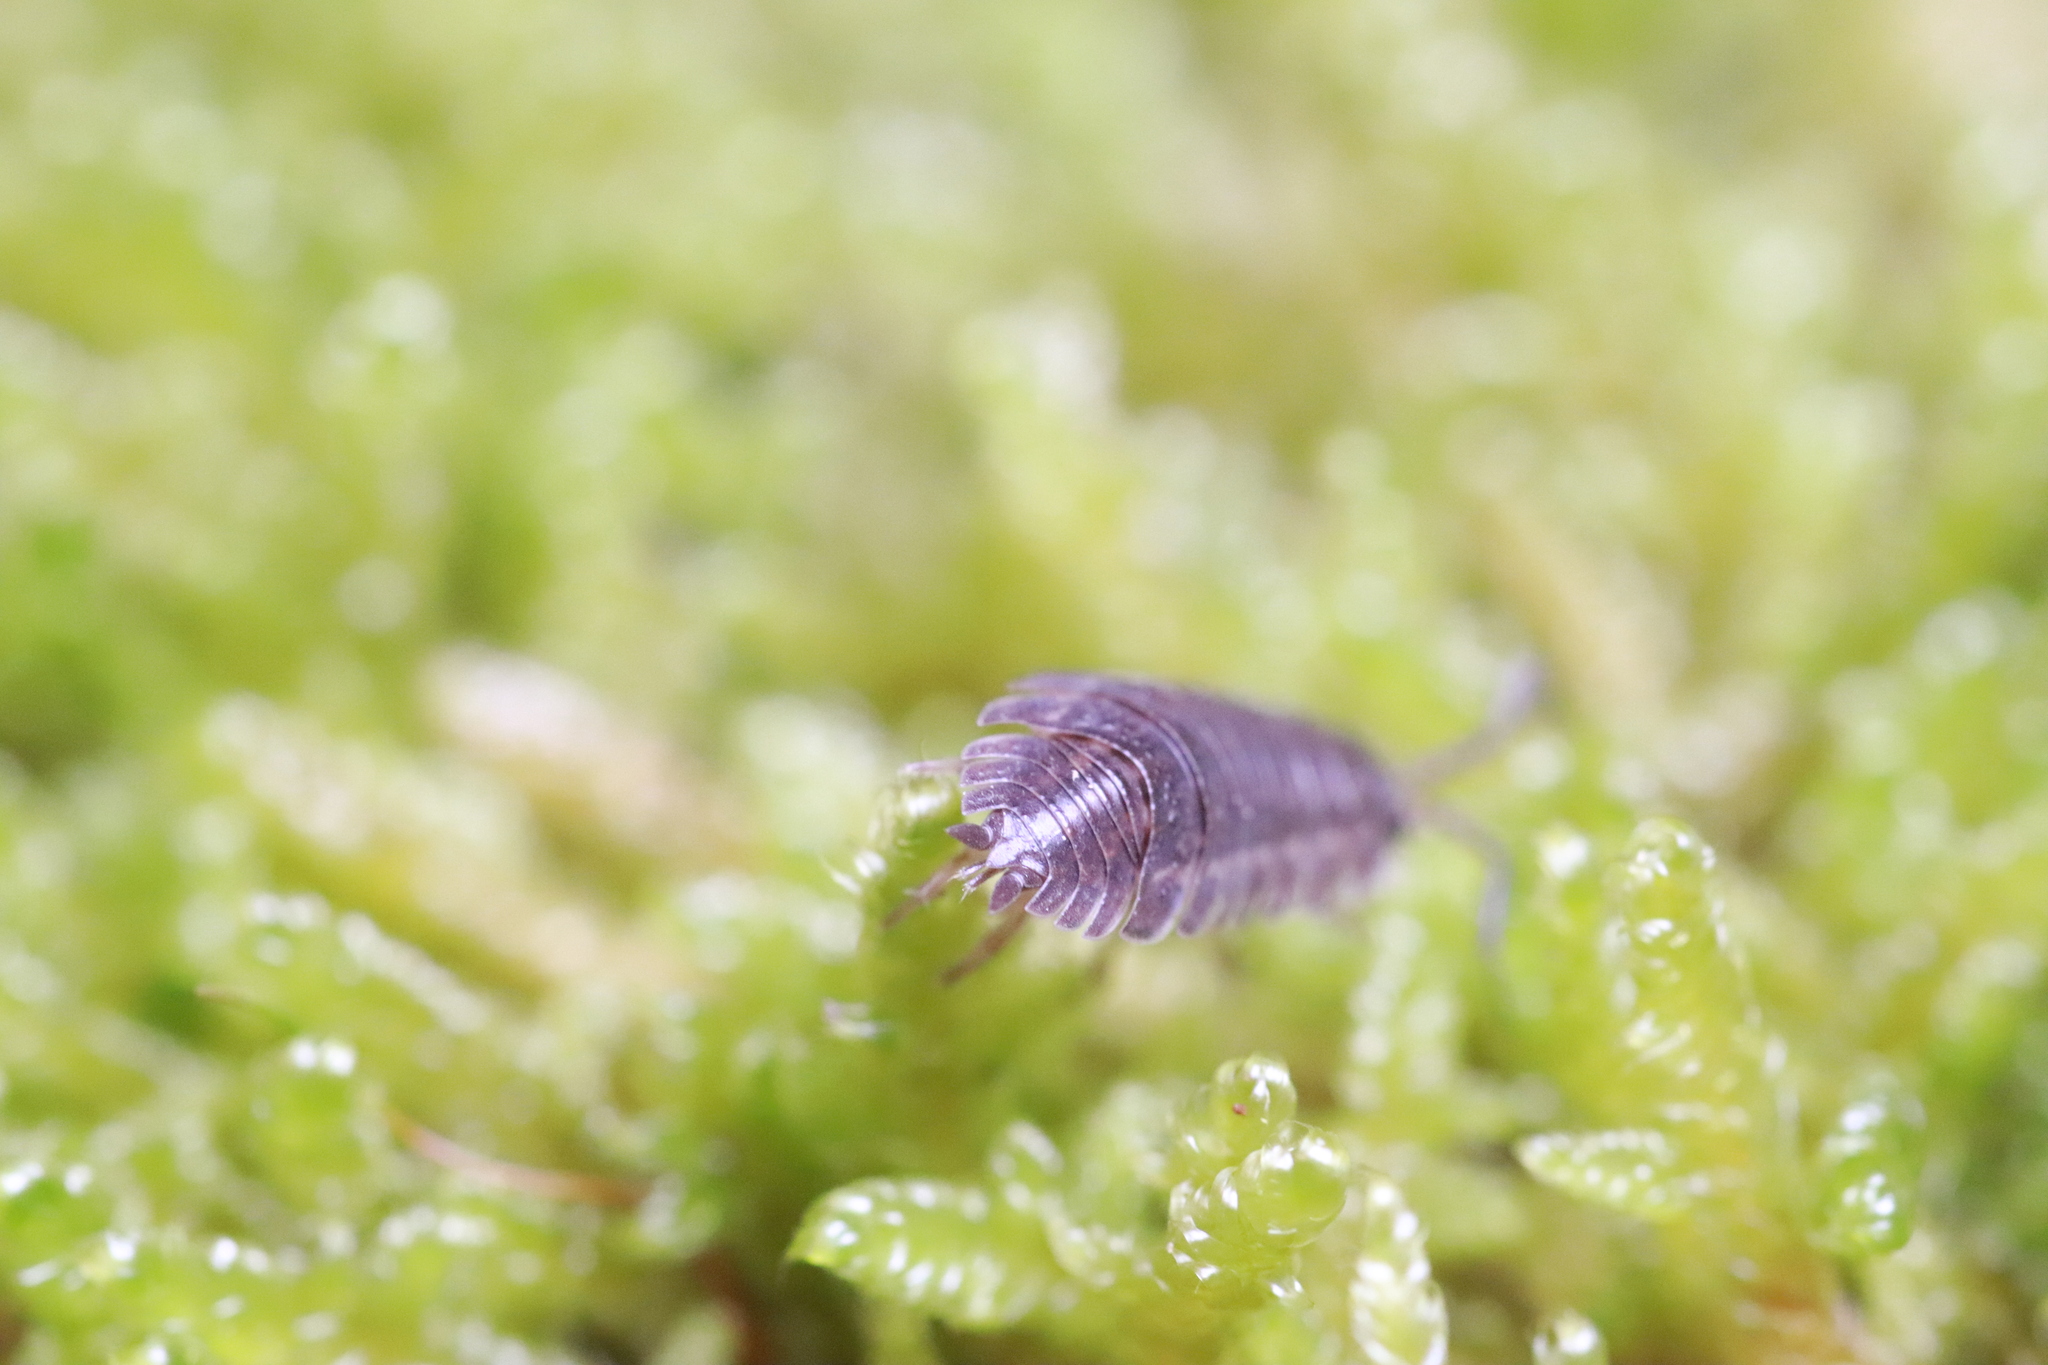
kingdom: Animalia
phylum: Arthropoda
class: Malacostraca
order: Isopoda
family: Trachelipodidae
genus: Trachelipus
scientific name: Trachelipus rathkii
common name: Isopod
